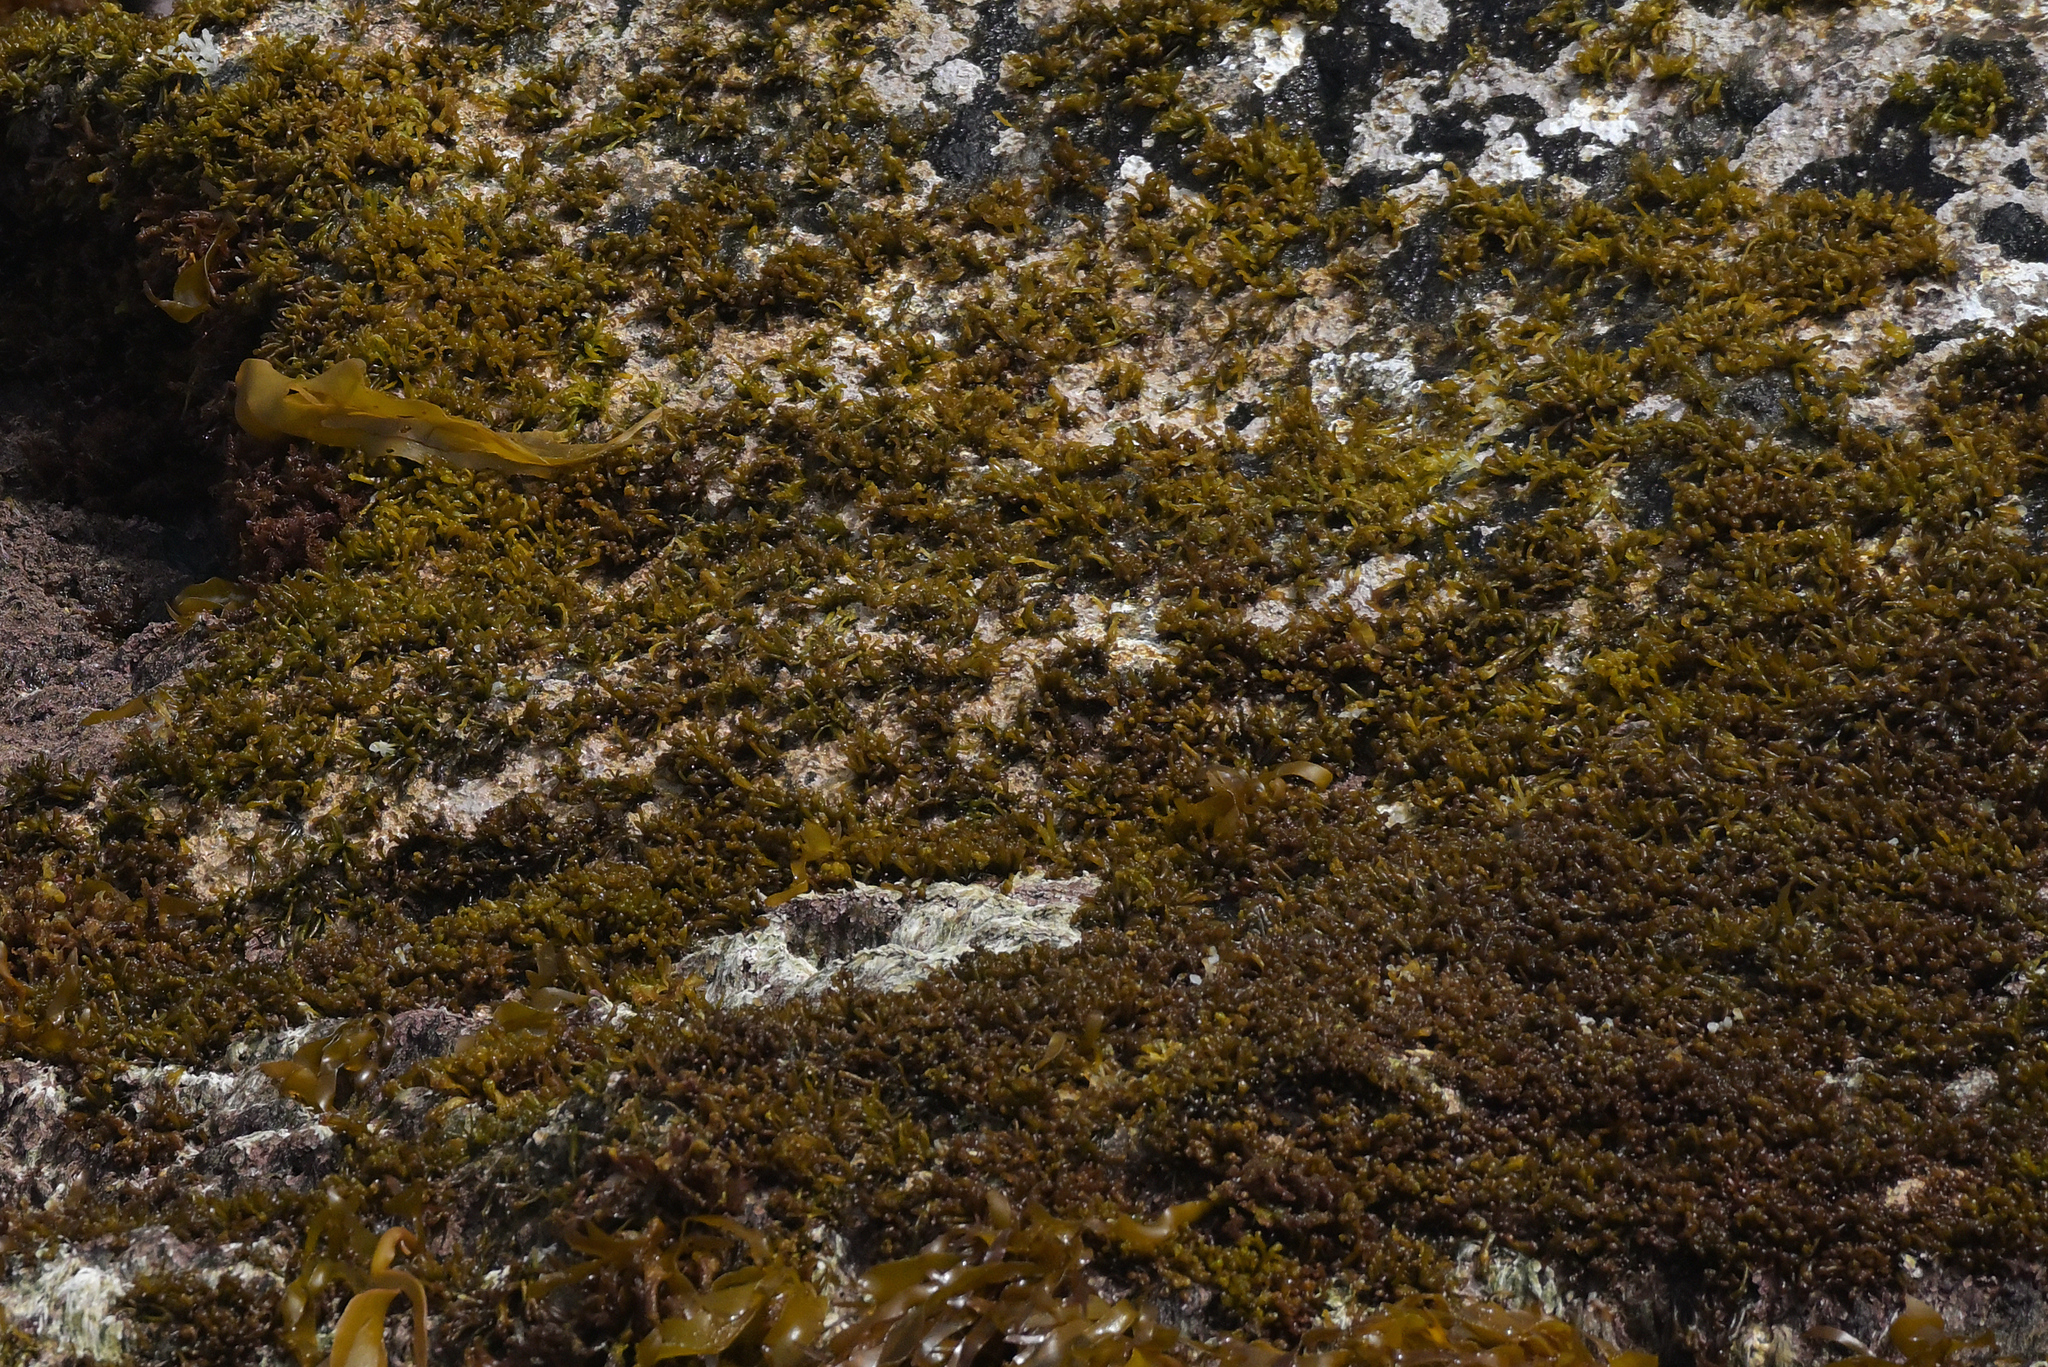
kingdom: Plantae
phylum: Rhodophyta
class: Florideophyceae
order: Gigartinales
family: Gigartinaceae
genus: Iridaea
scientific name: Iridaea tuberculosa
